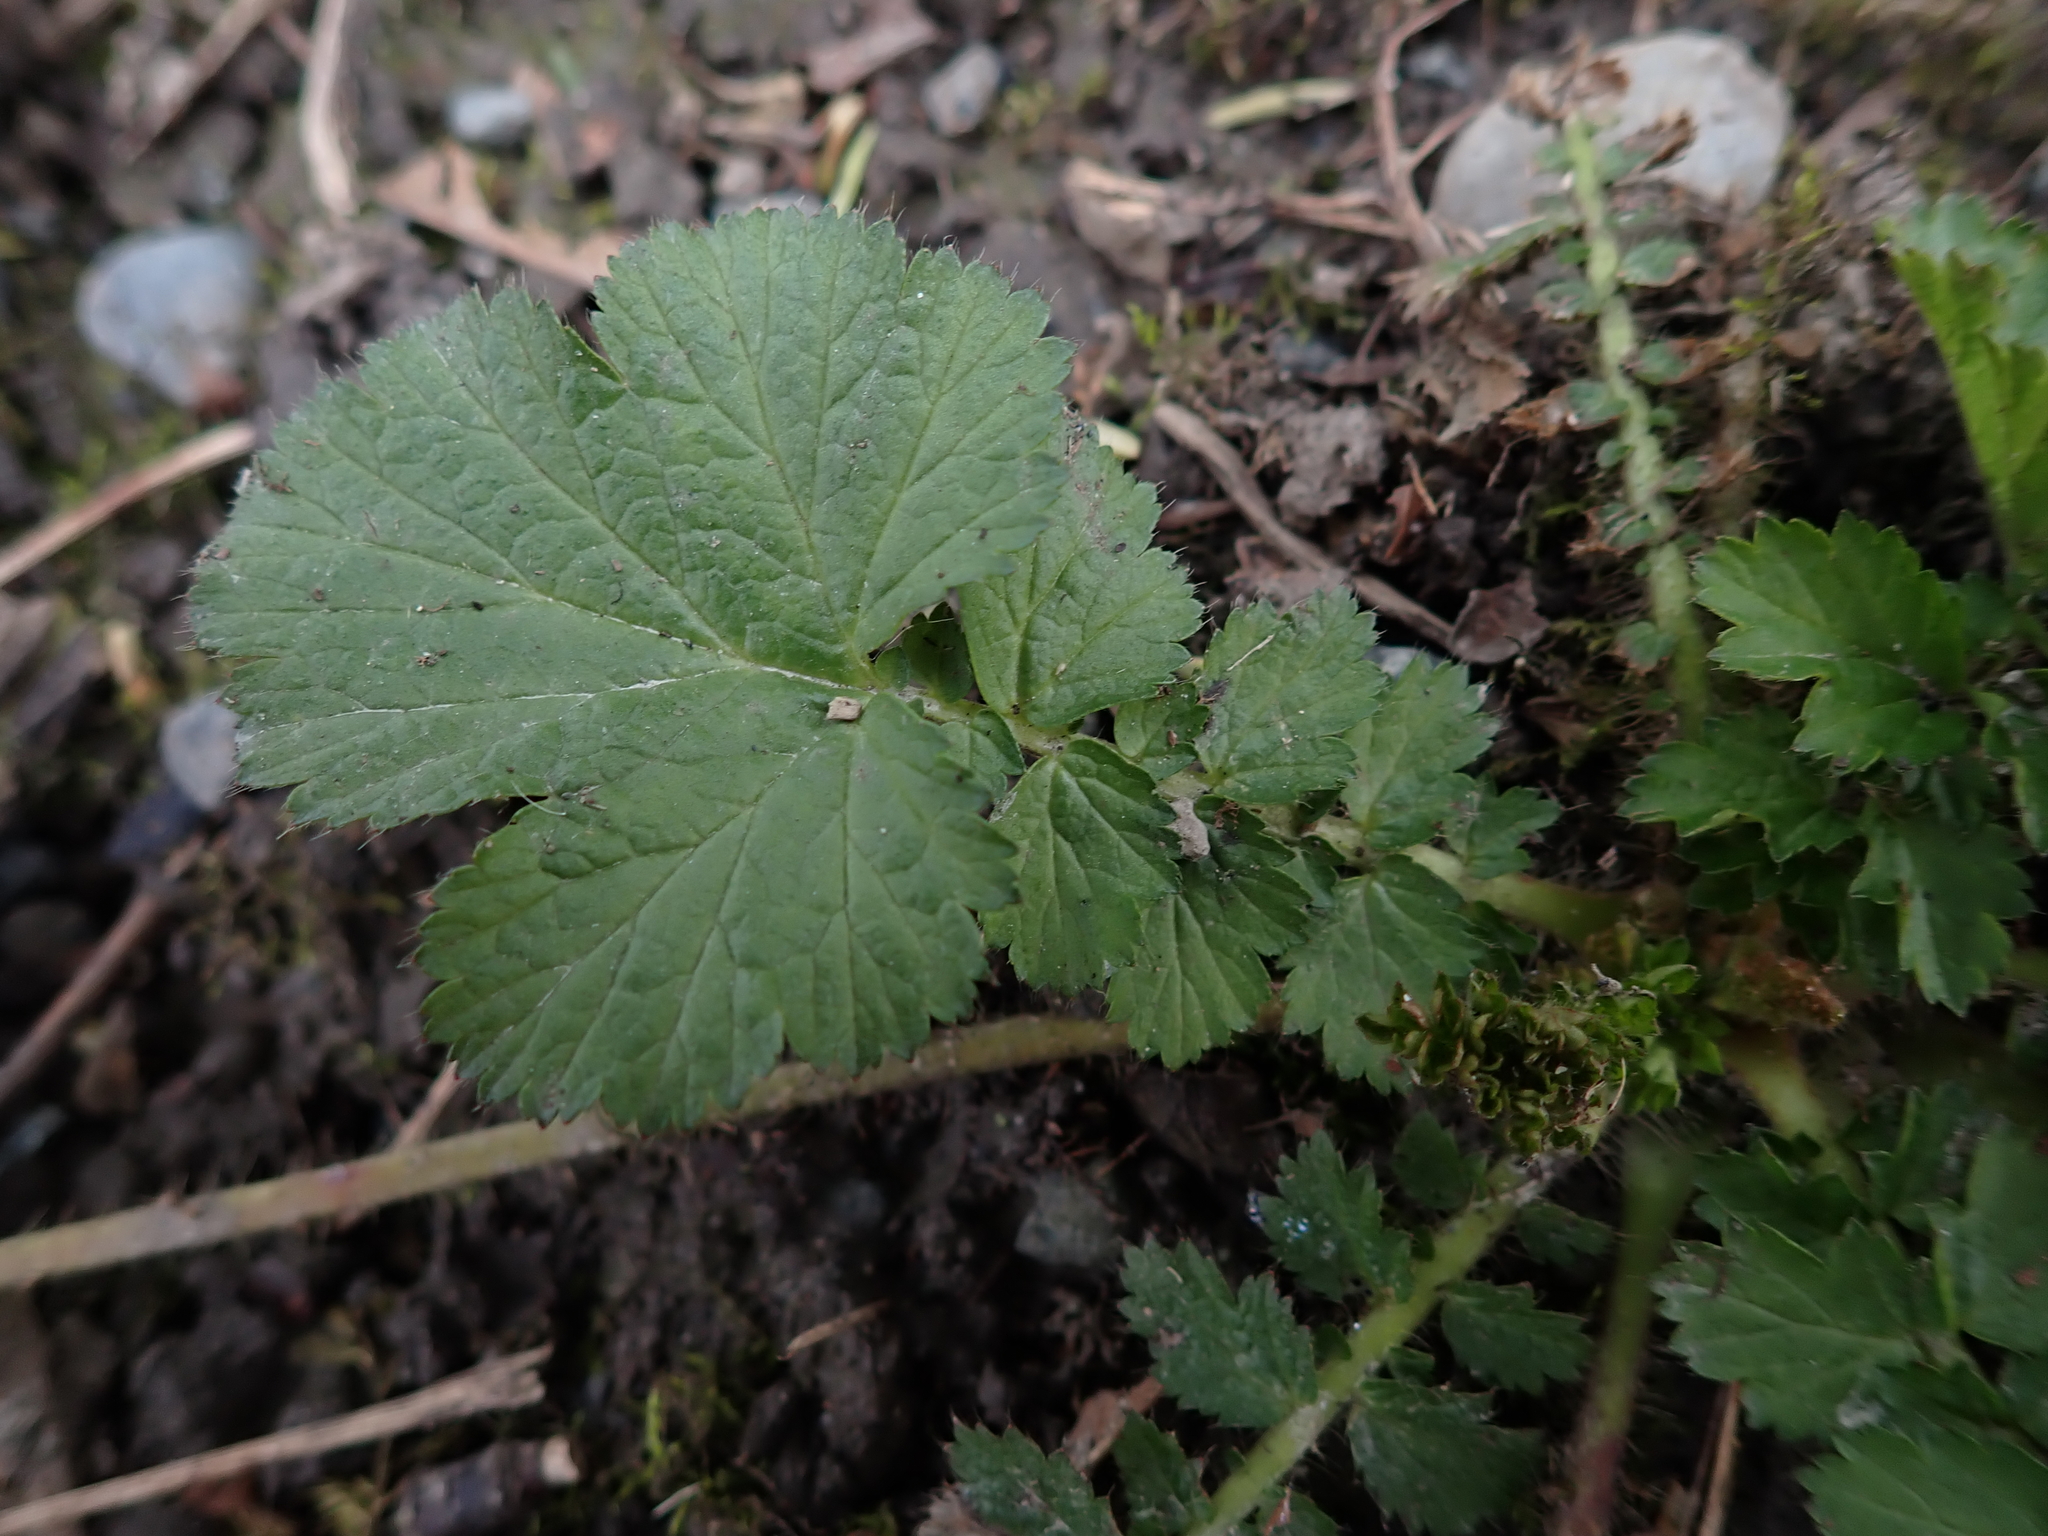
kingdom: Plantae
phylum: Tracheophyta
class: Magnoliopsida
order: Rosales
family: Rosaceae
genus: Geum
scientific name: Geum macrophyllum
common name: Large-leaved avens
